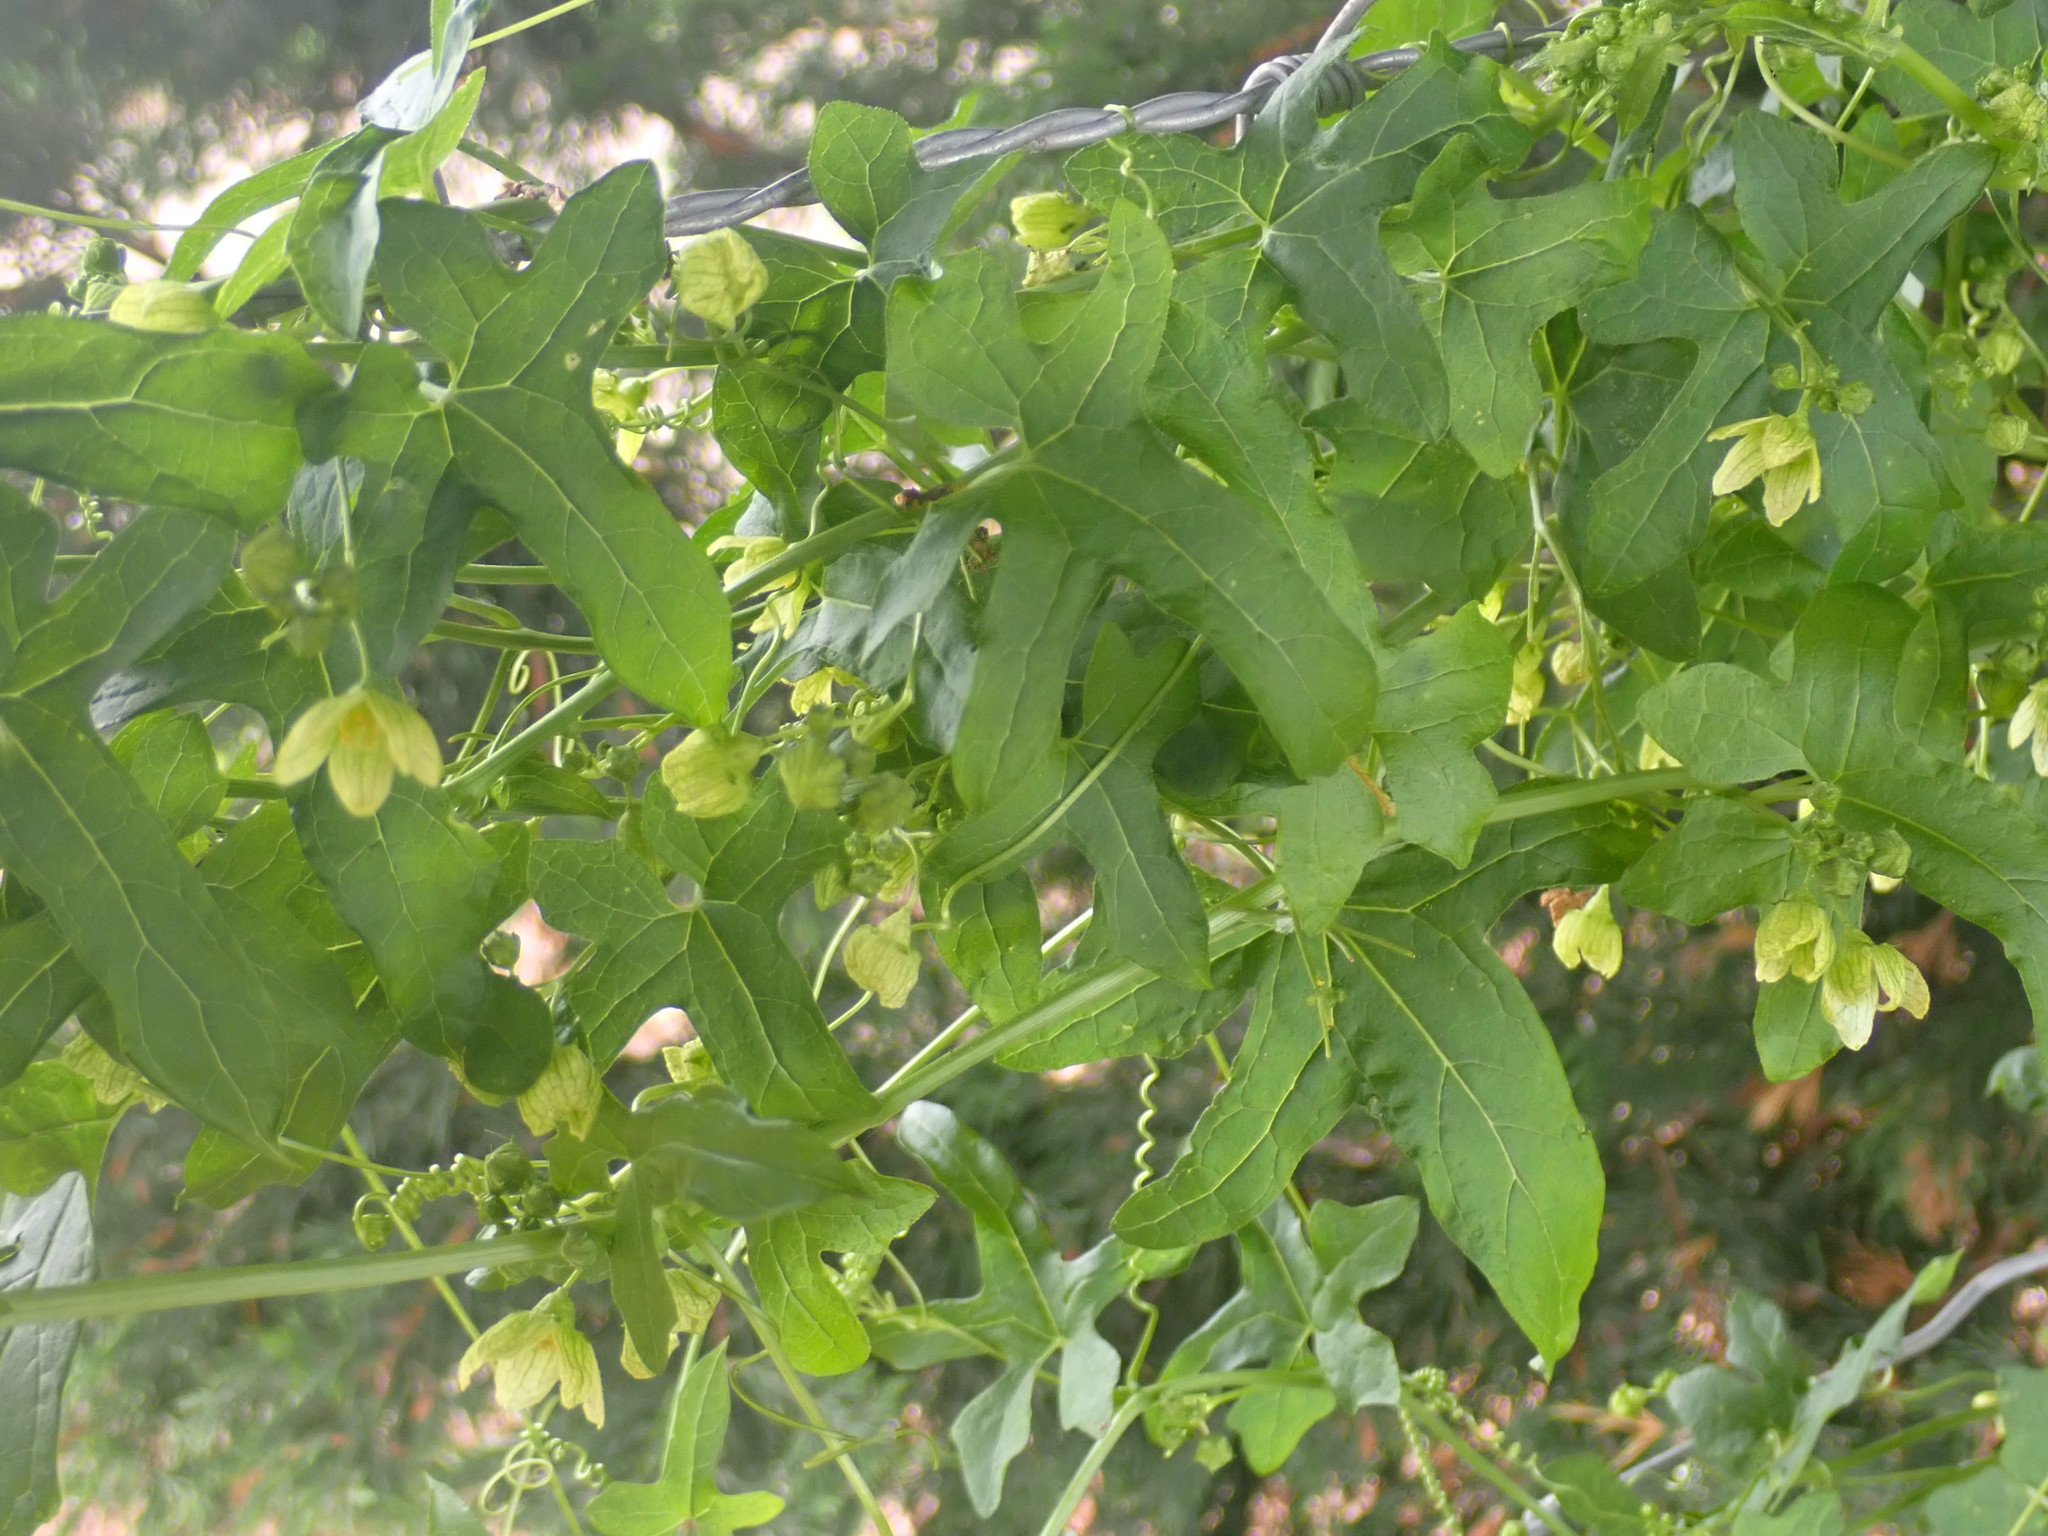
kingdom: Plantae
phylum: Tracheophyta
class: Magnoliopsida
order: Cucurbitales
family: Cucurbitaceae
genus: Bryonia
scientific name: Bryonia cretica
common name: Cretan bryony
